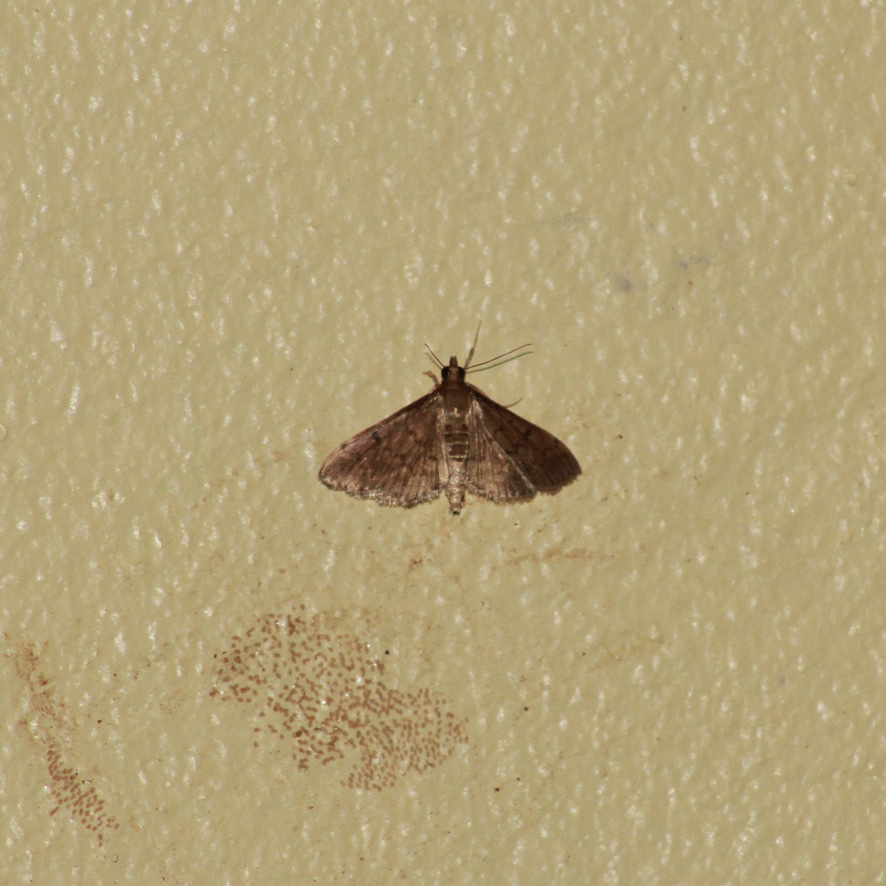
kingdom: Animalia
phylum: Arthropoda
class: Insecta
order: Lepidoptera
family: Crambidae
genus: Herpetogramma
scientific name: Herpetogramma phaeopteralis
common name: Dusky herpetogramma moth
